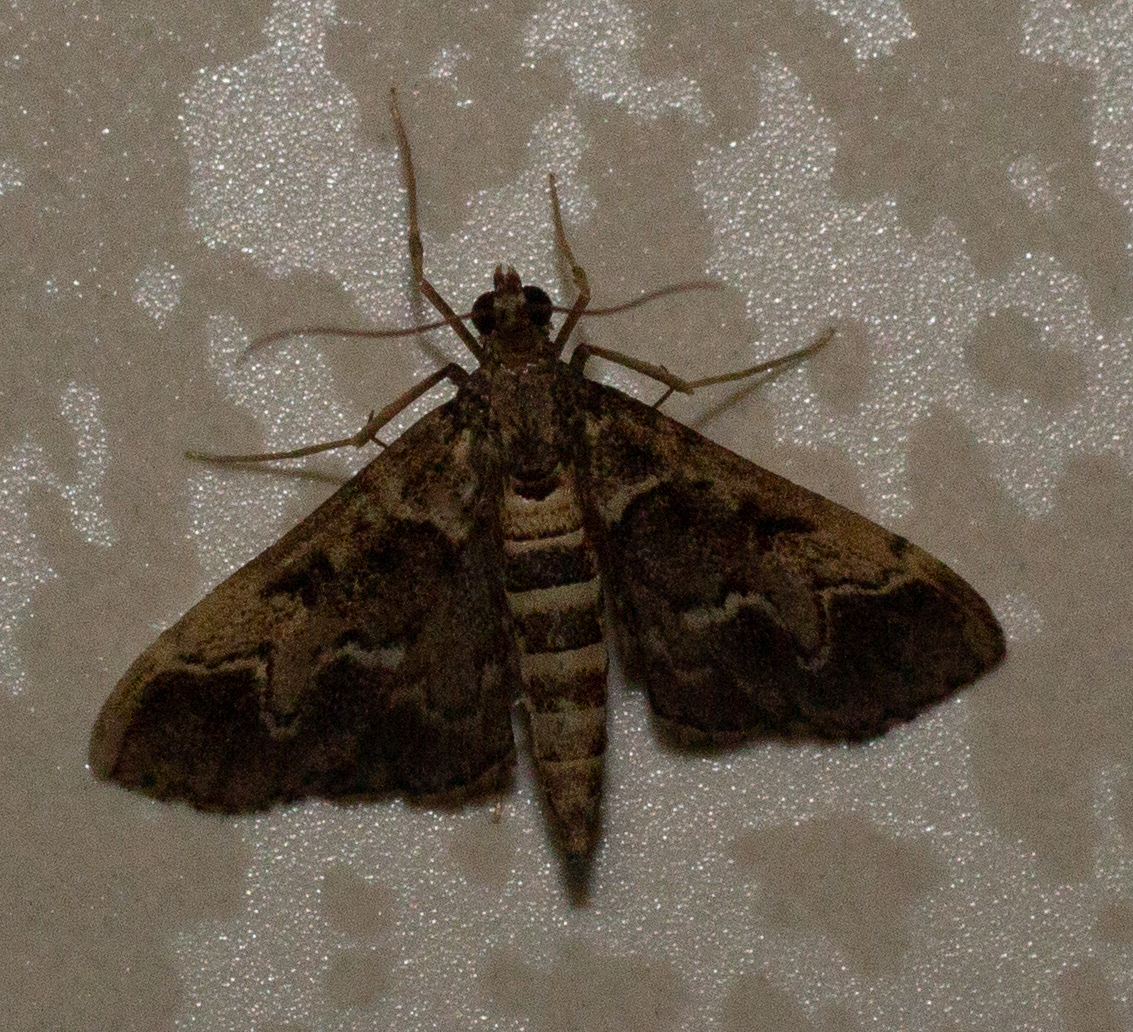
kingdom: Animalia
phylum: Arthropoda
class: Insecta
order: Lepidoptera
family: Crambidae
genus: Duponchelia
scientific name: Duponchelia fovealis
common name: Crambid moth
